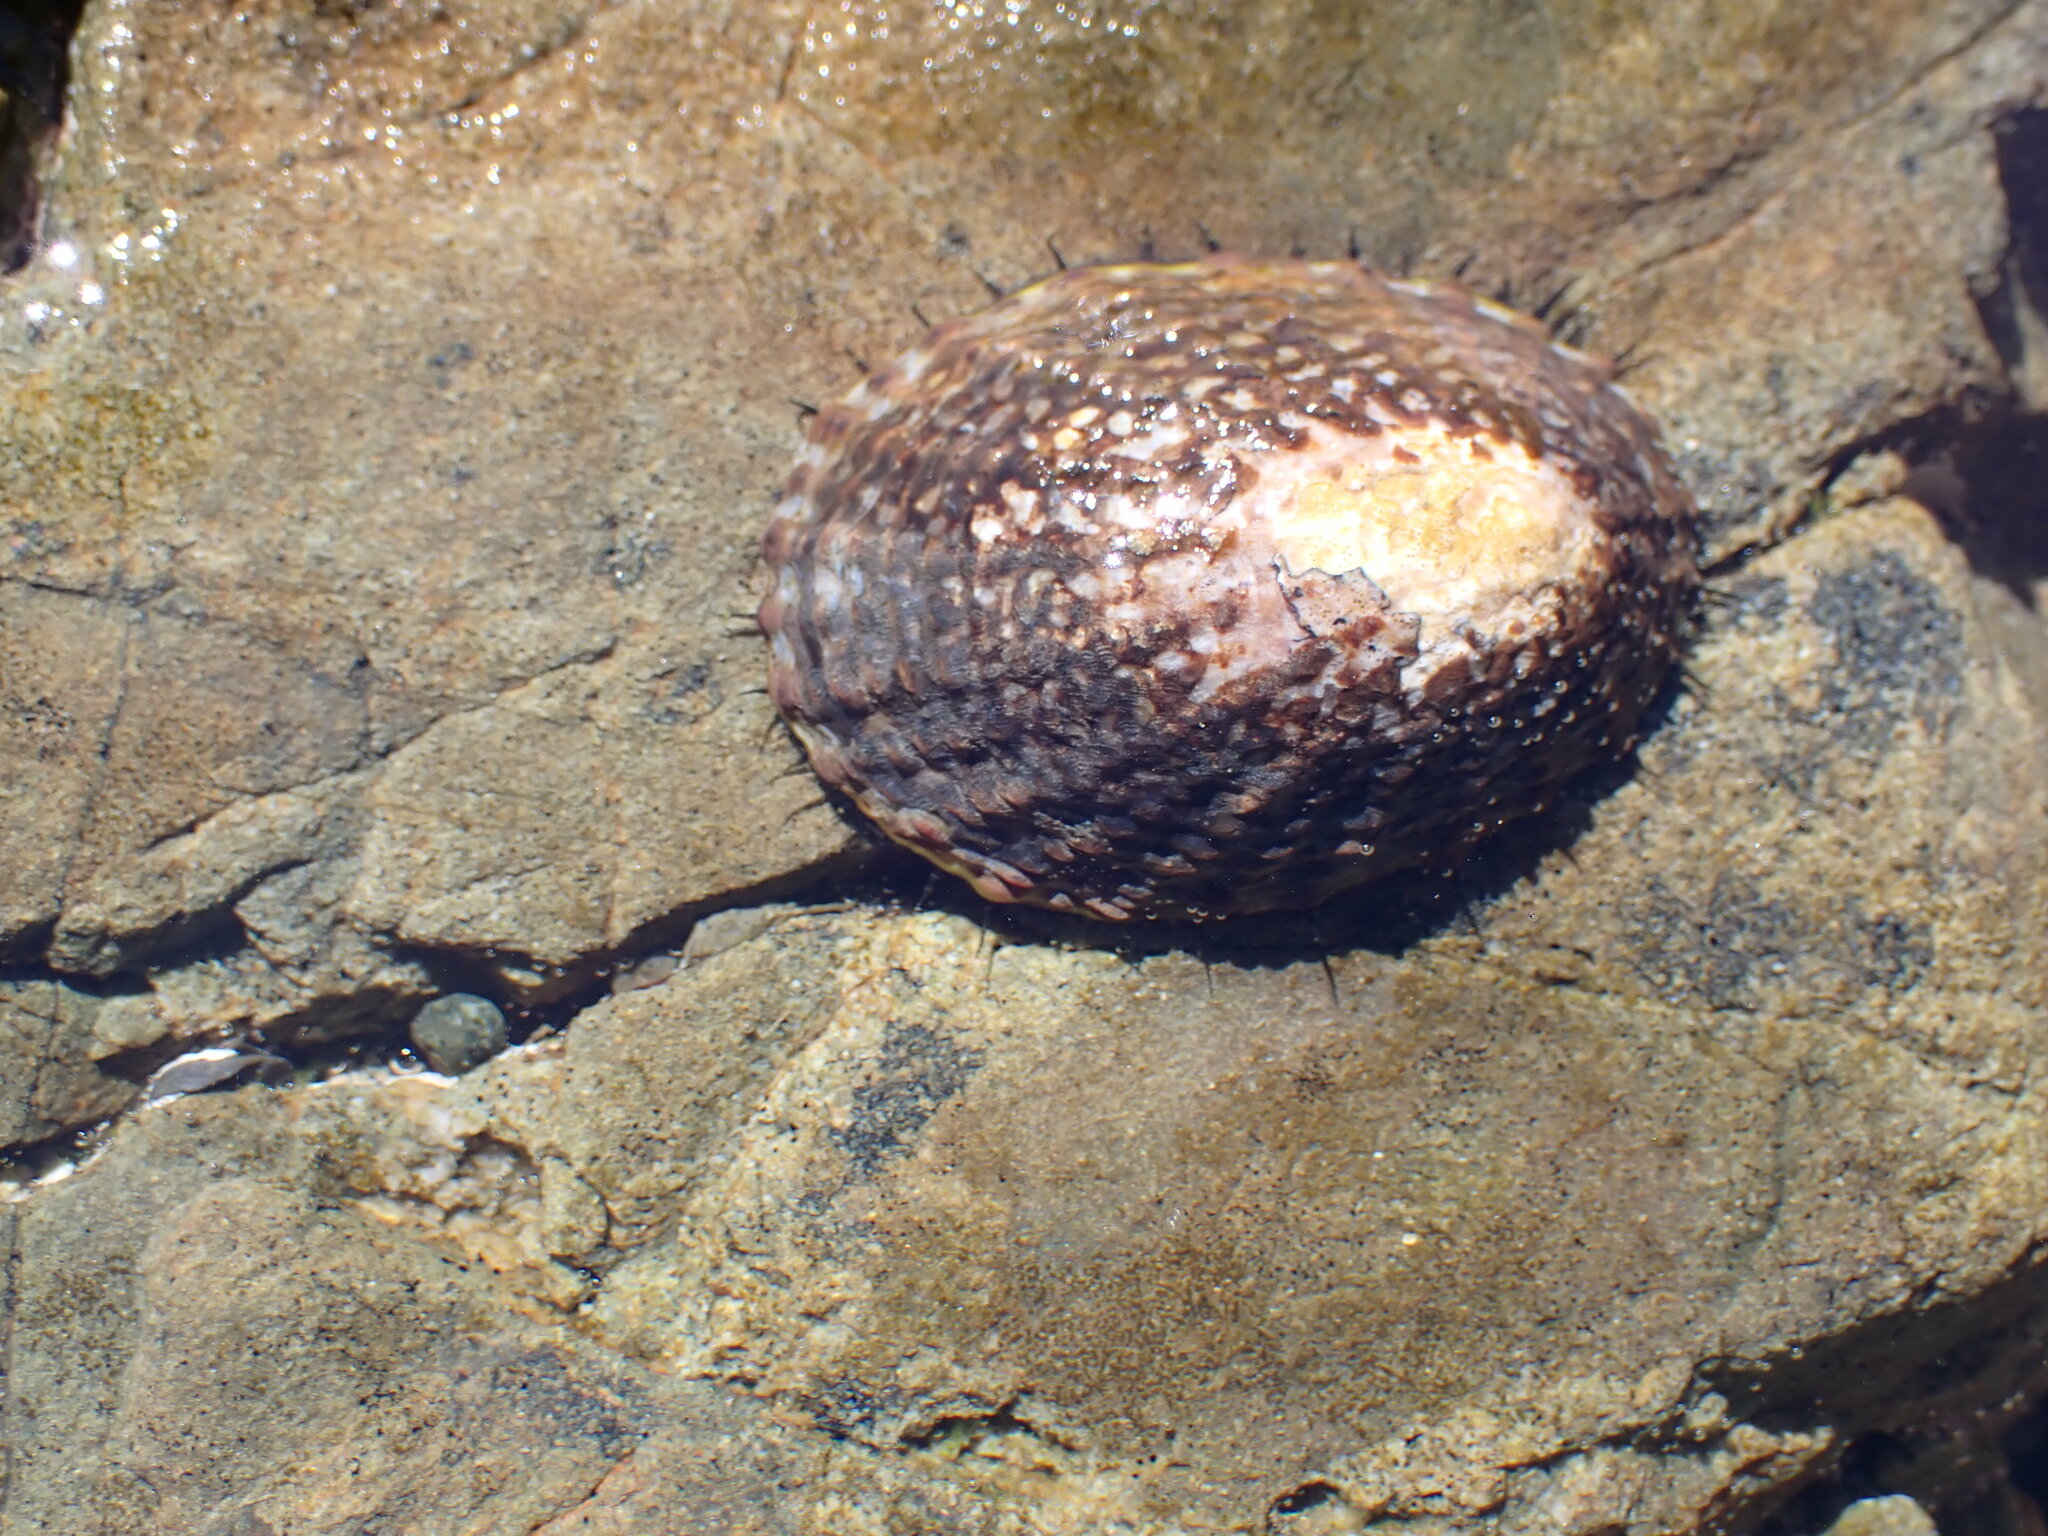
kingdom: Animalia
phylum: Mollusca
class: Gastropoda
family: Nacellidae
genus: Cellana
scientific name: Cellana denticulata
